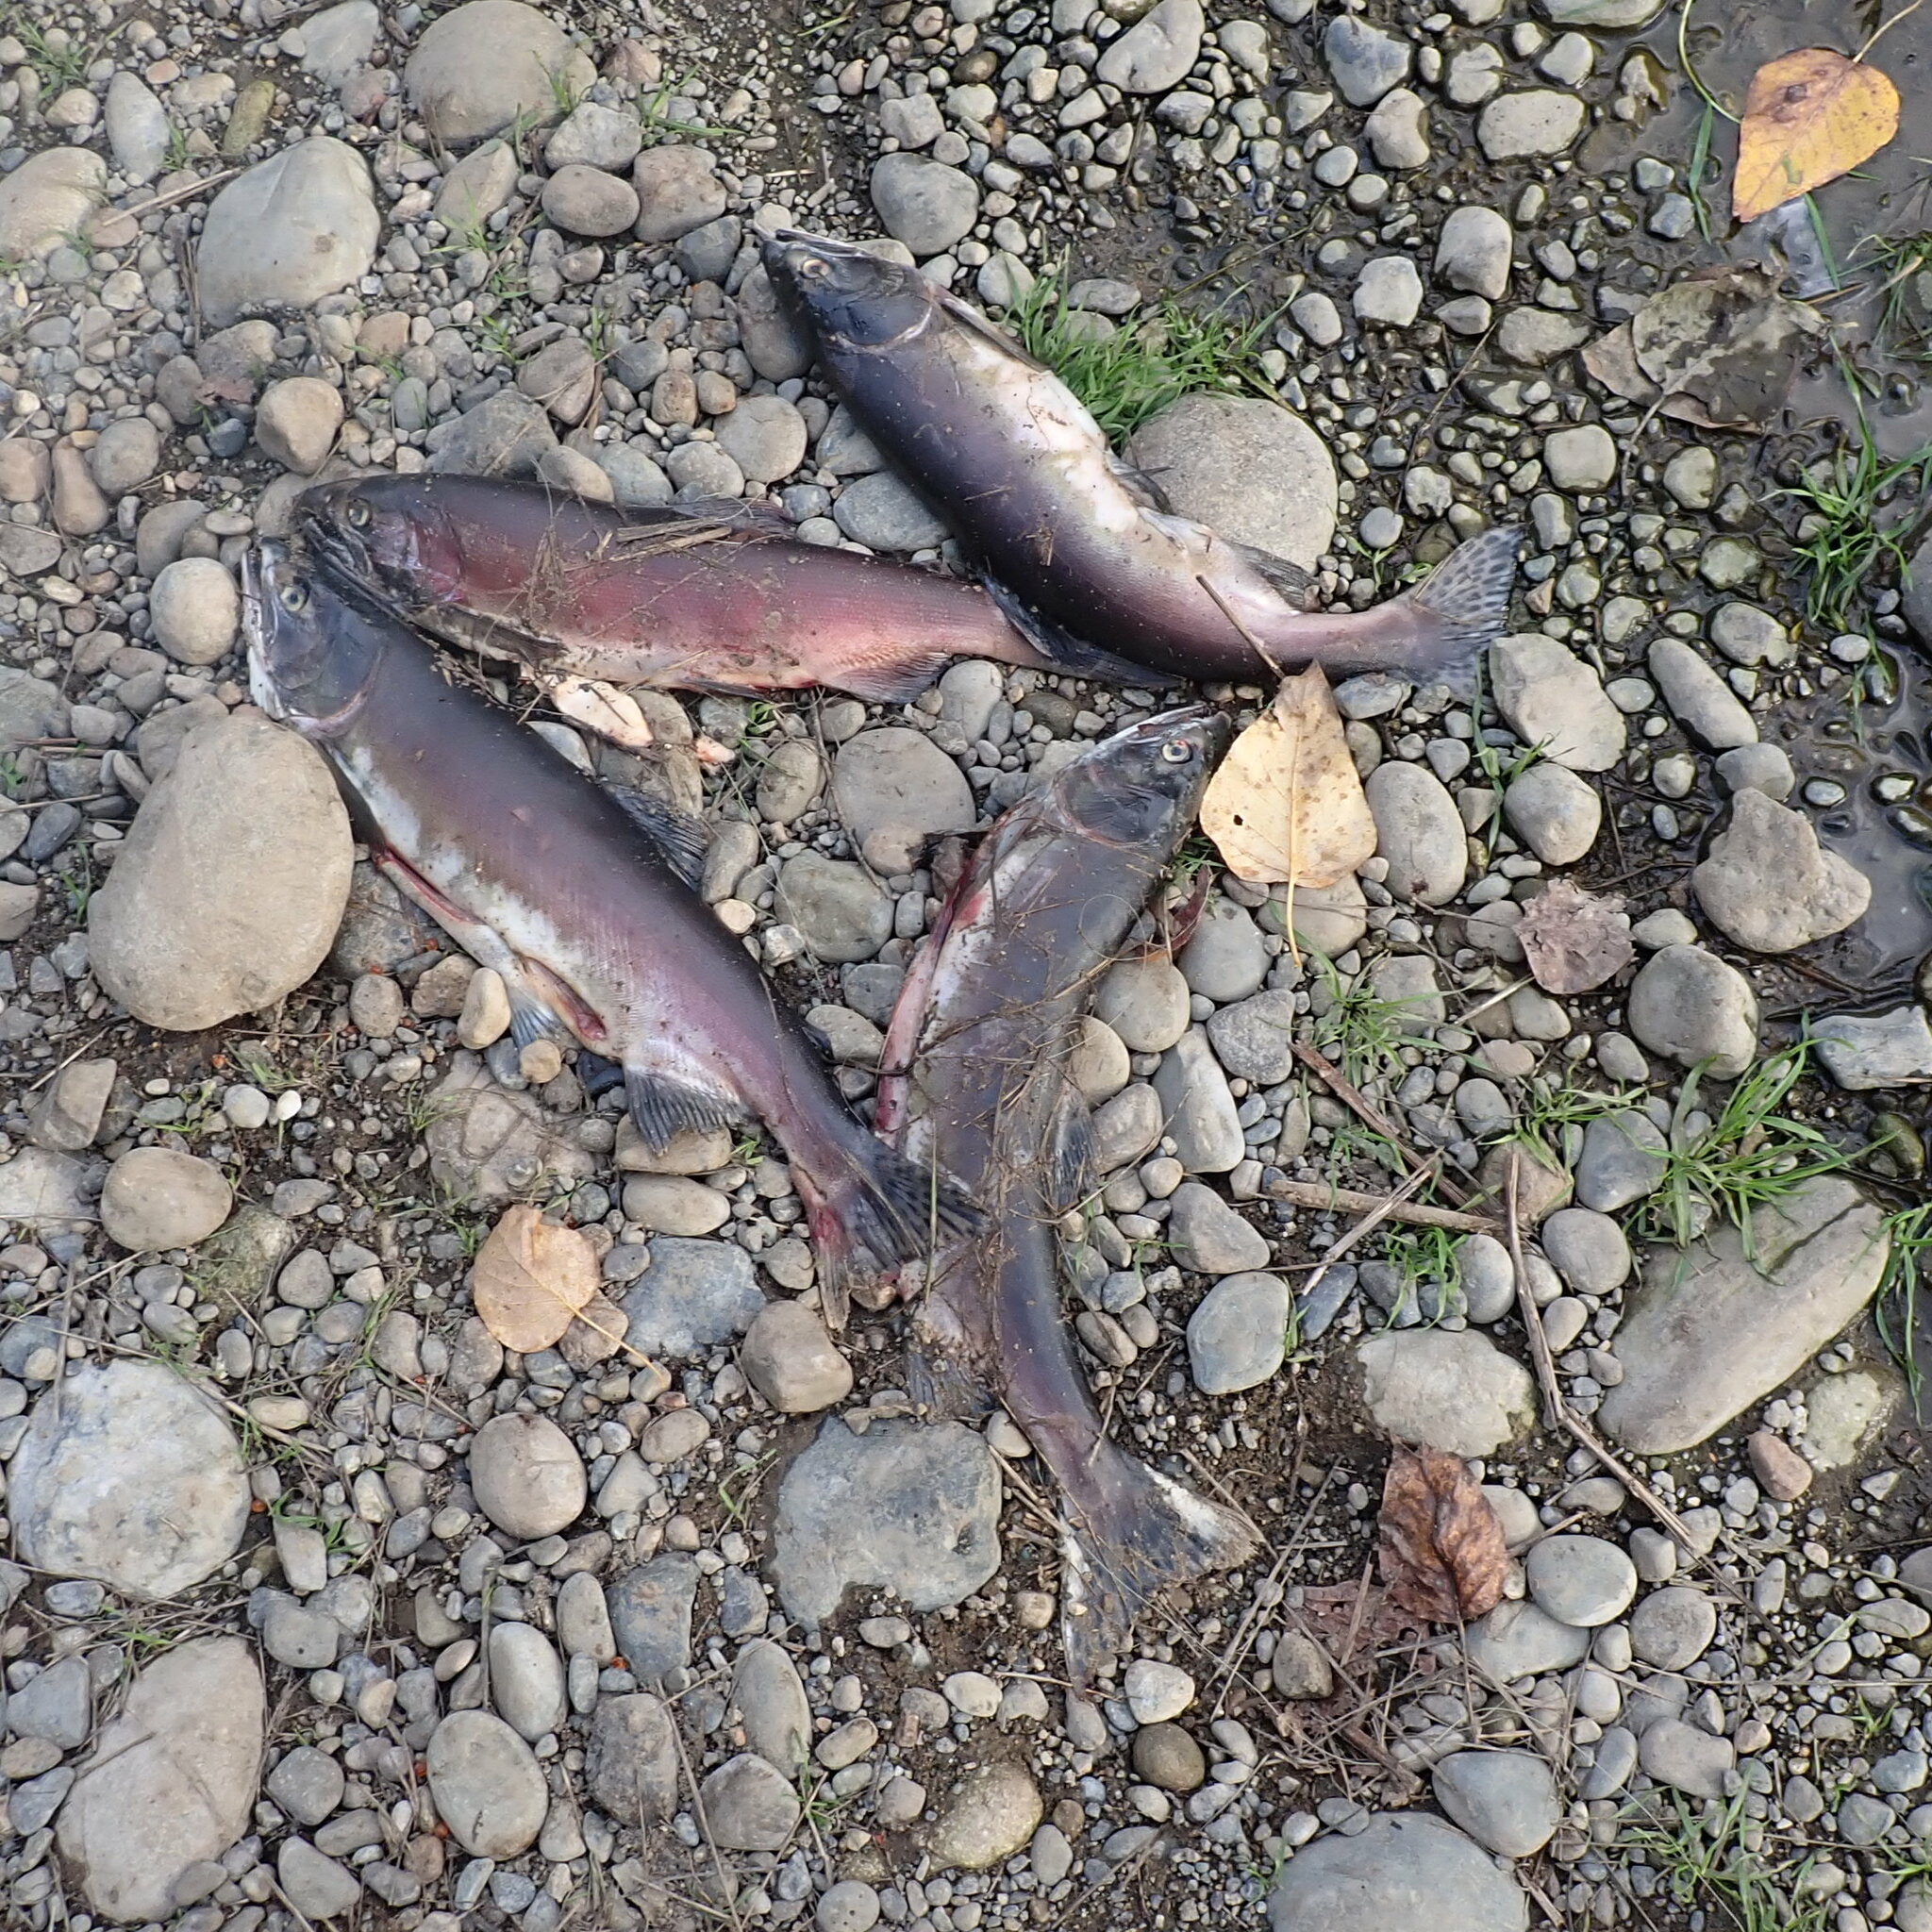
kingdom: Animalia
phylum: Chordata
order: Salmoniformes
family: Salmonidae
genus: Oncorhynchus
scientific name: Oncorhynchus kisutch
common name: Coho salmon
